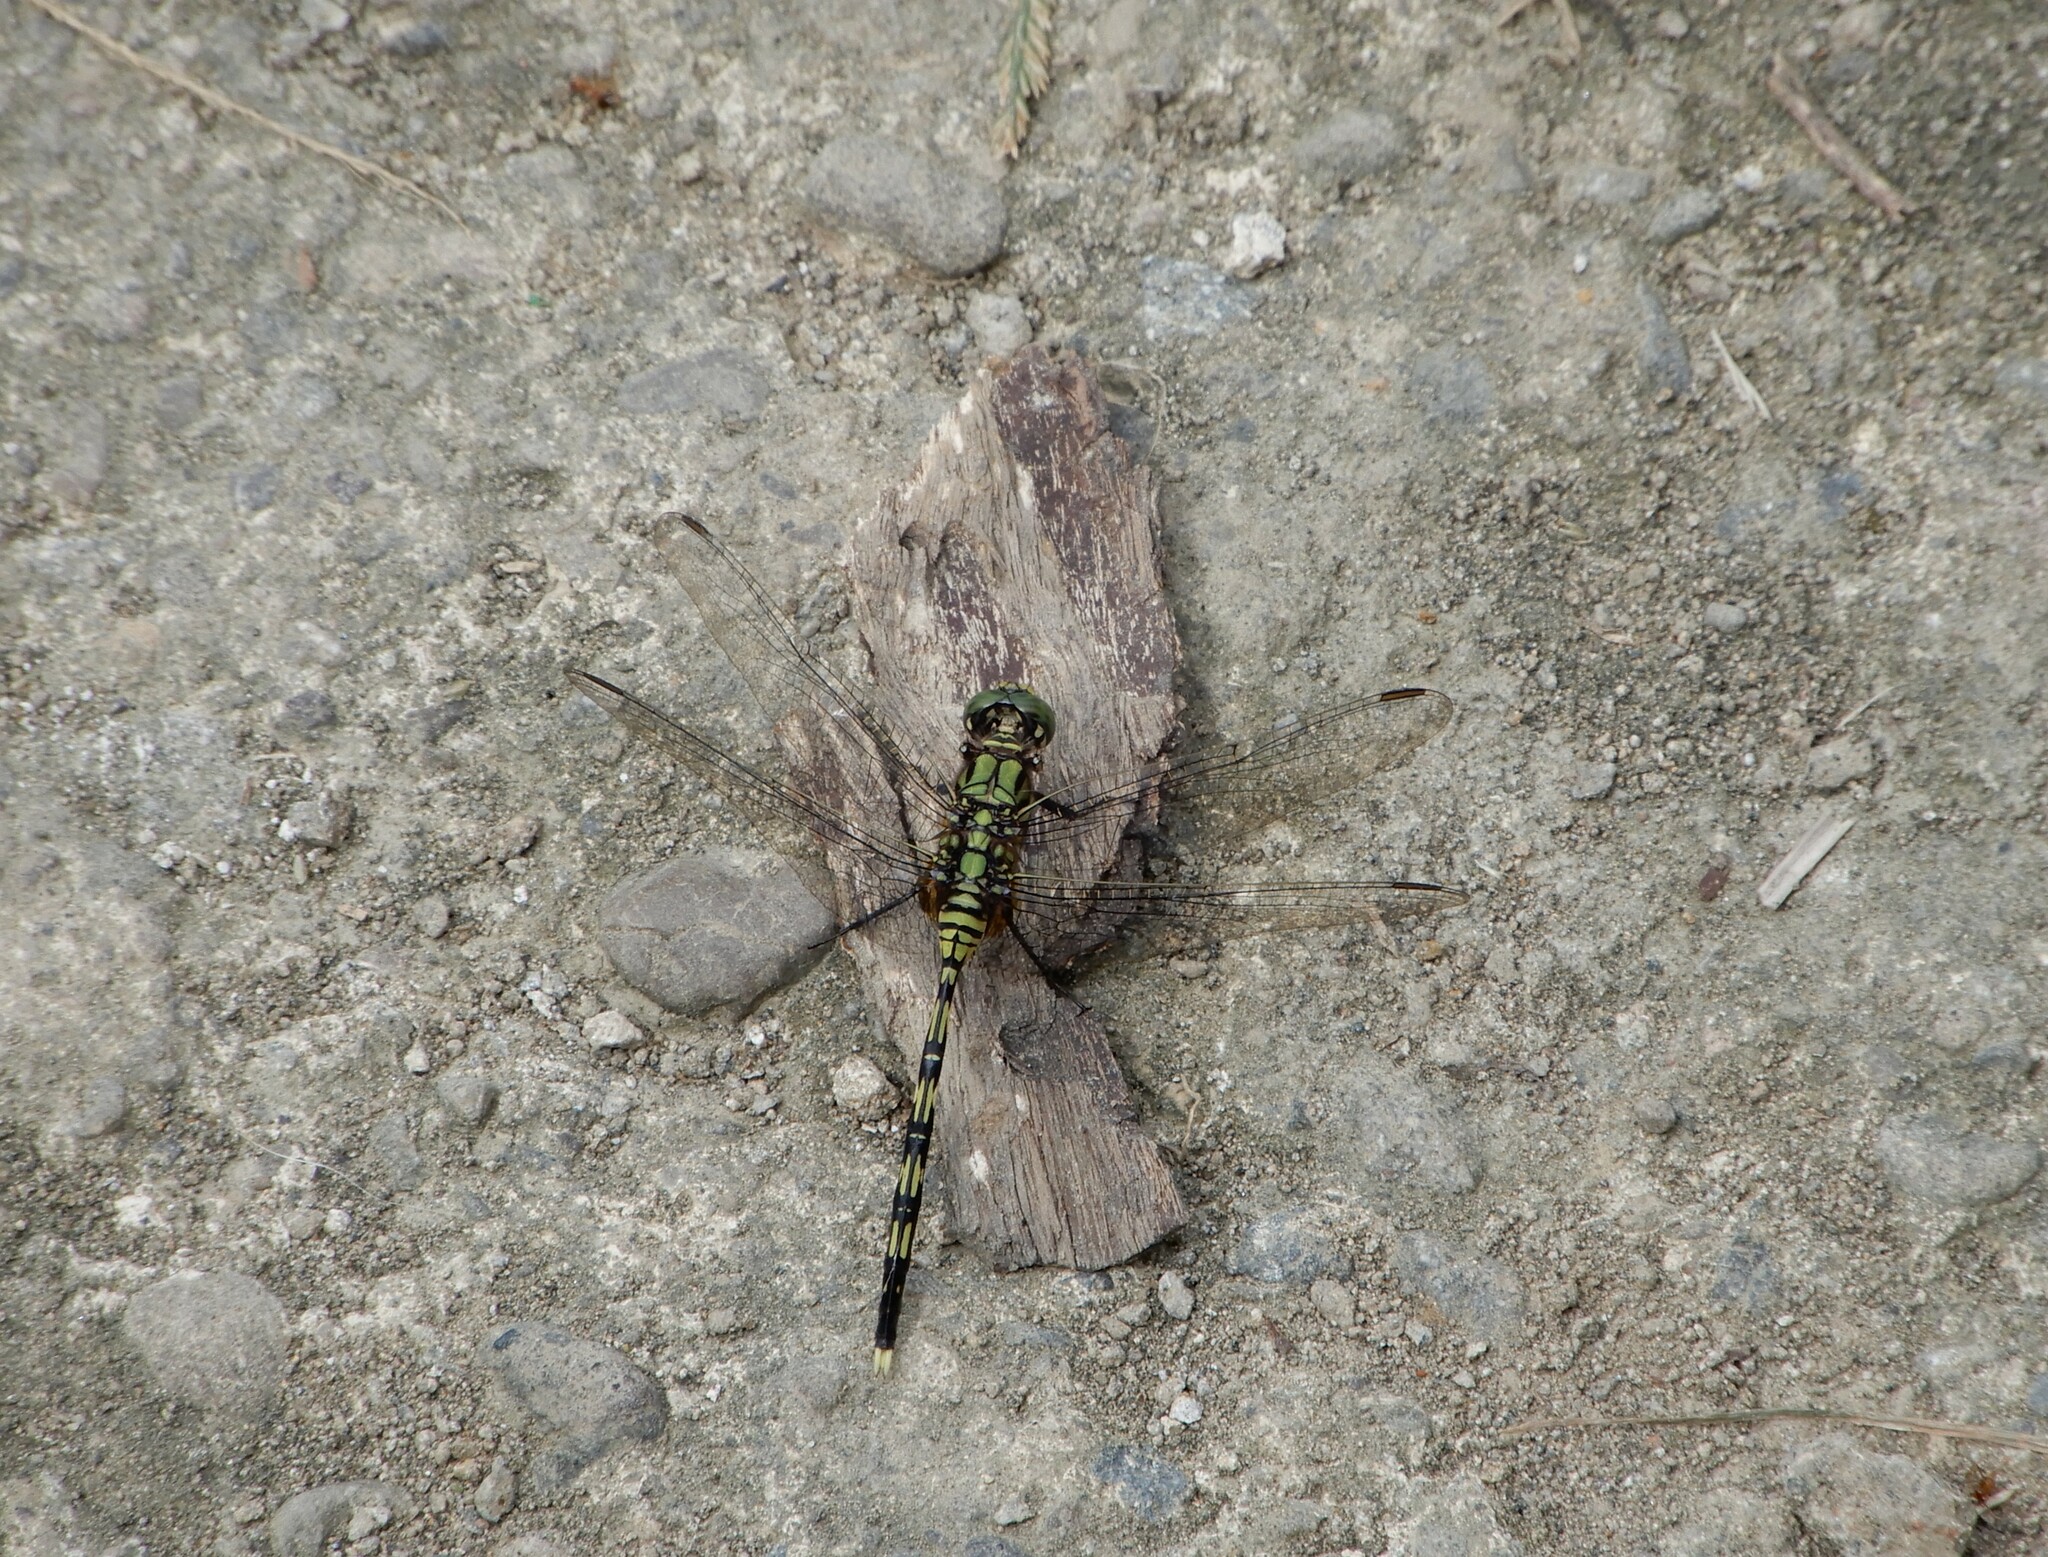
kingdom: Animalia
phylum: Arthropoda
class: Insecta
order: Odonata
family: Libellulidae
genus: Orthetrum
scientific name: Orthetrum serapia
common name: Green skimmer
